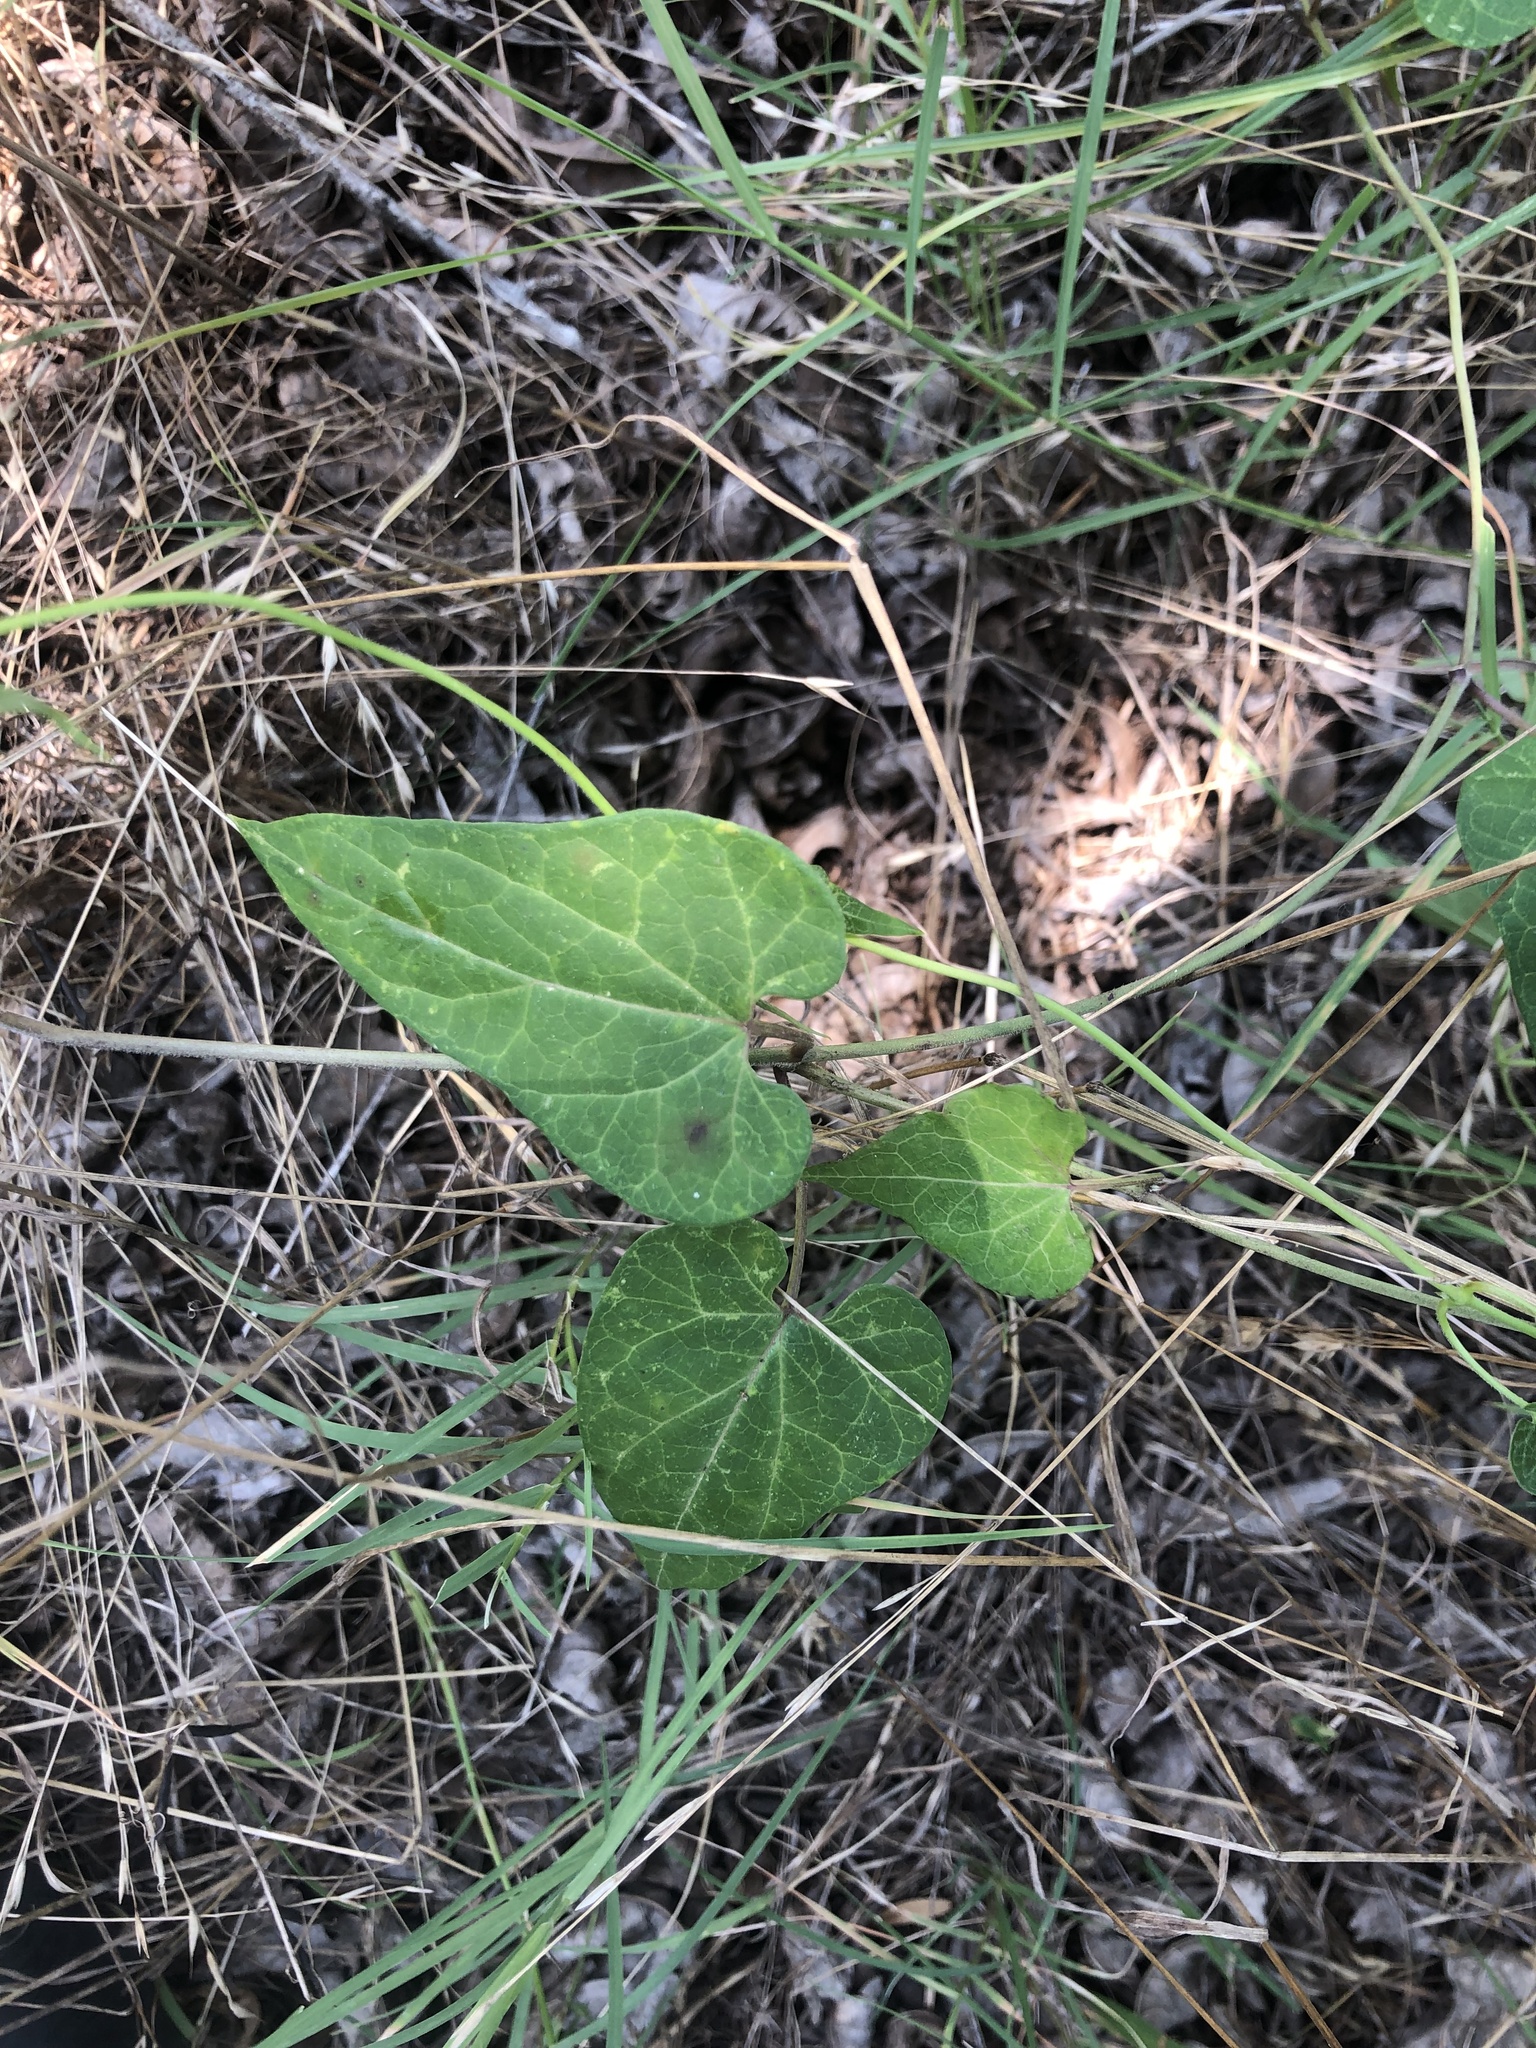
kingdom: Plantae
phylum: Tracheophyta
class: Magnoliopsida
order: Gentianales
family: Apocynaceae
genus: Cynanchum
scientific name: Cynanchum laeve
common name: Sandvine
